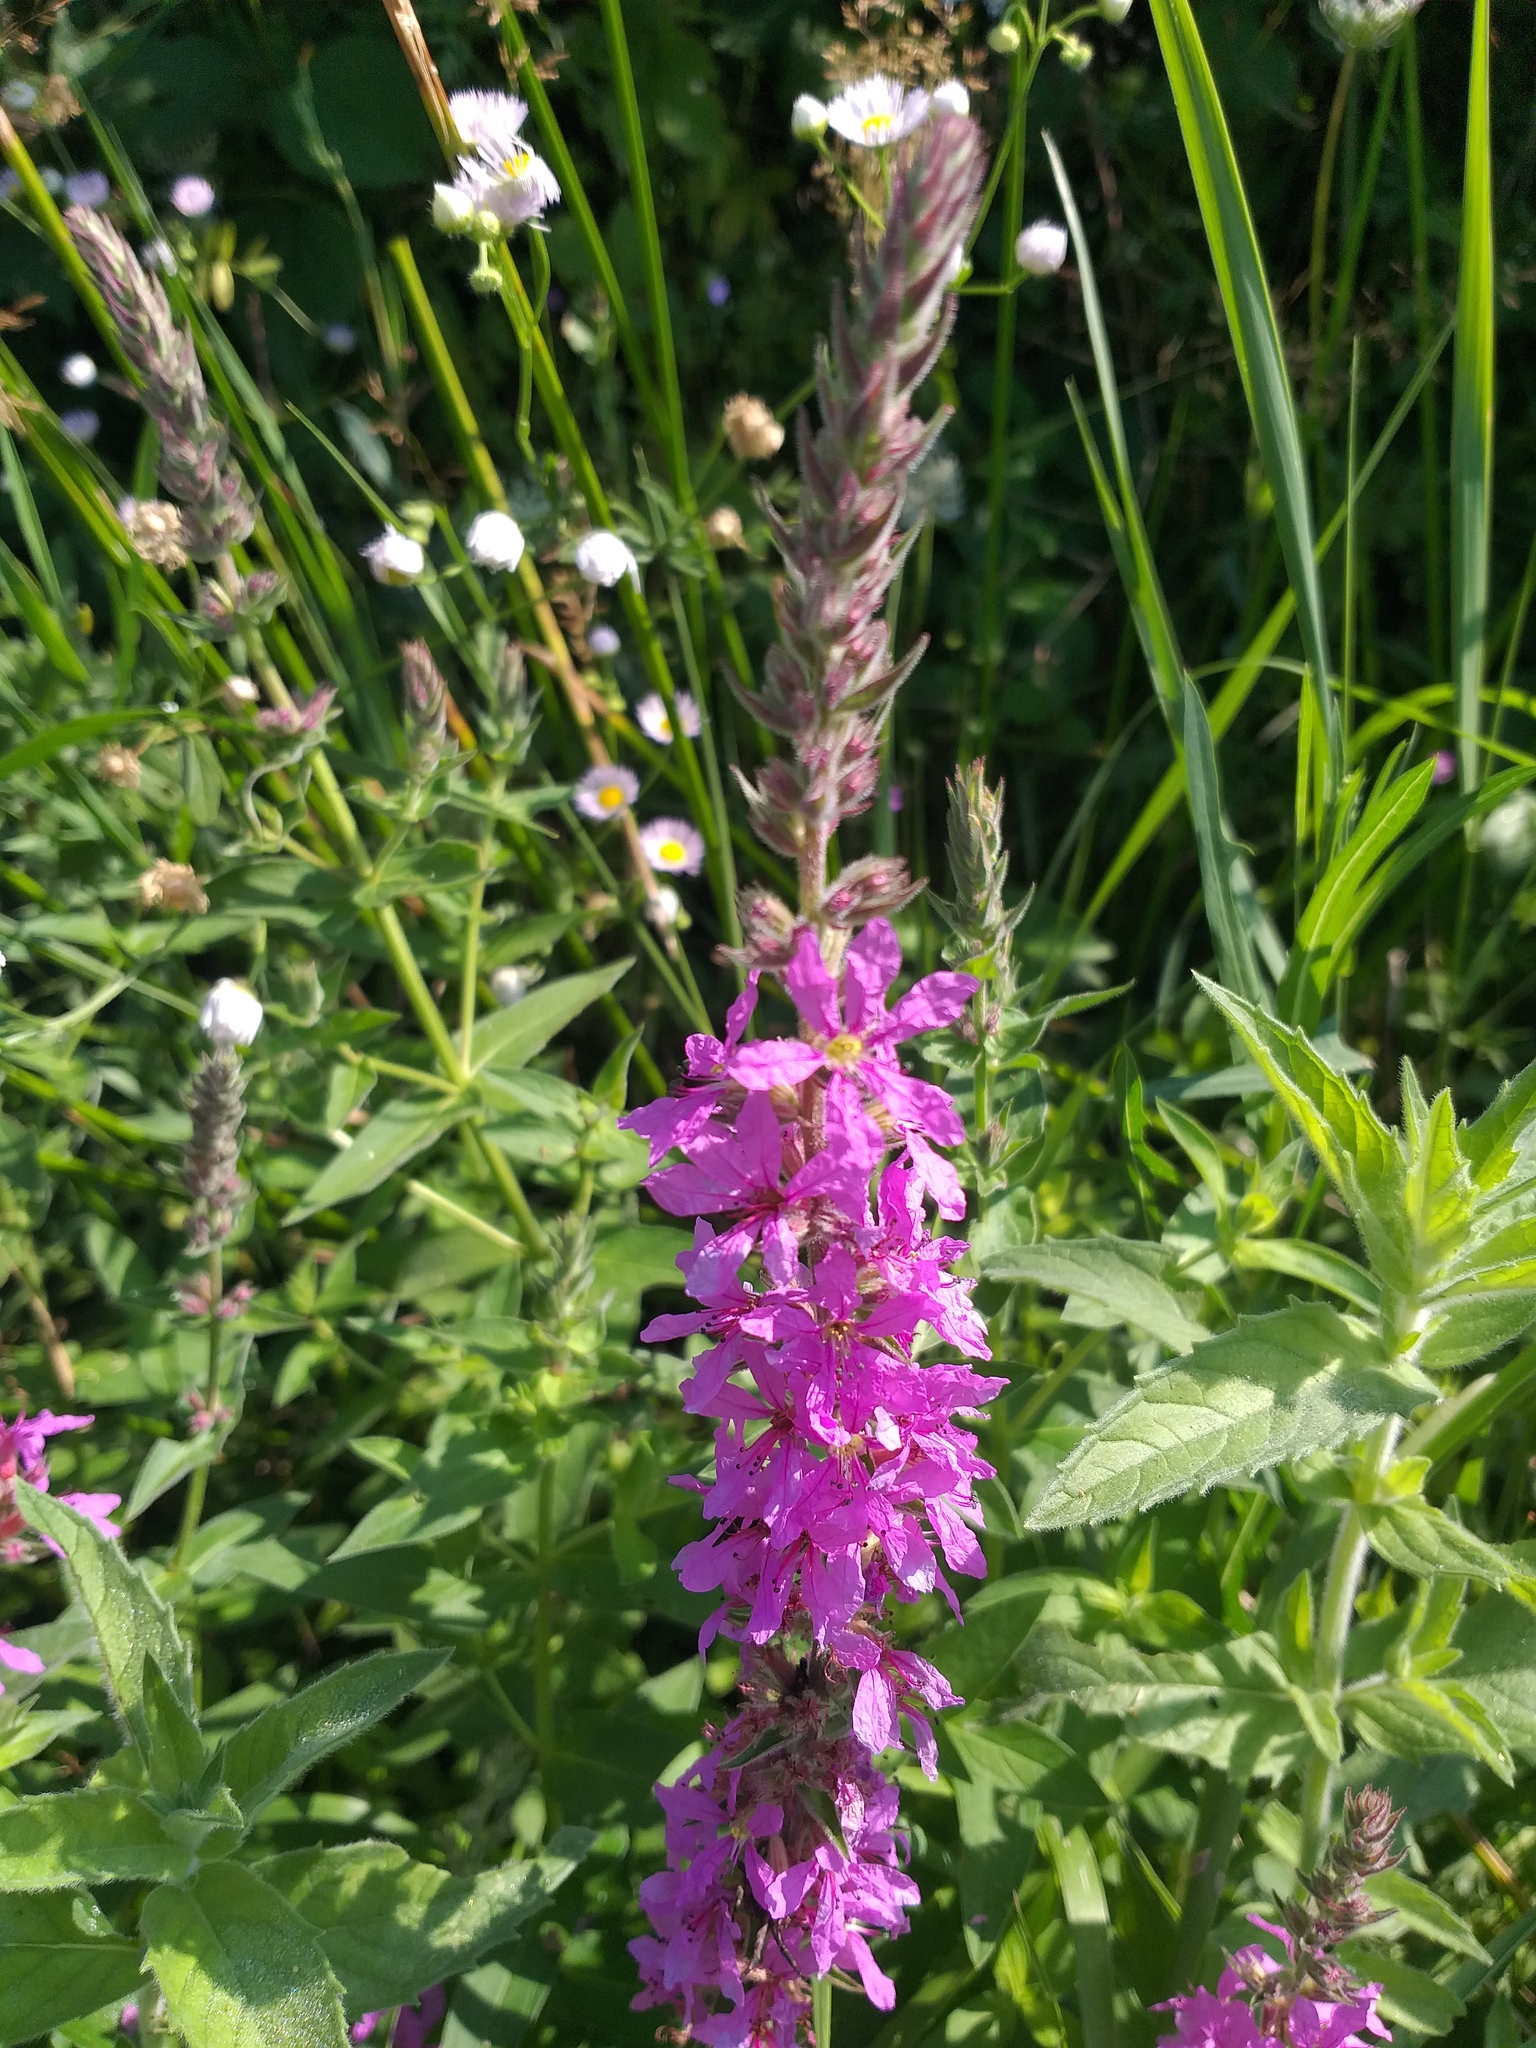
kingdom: Plantae
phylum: Tracheophyta
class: Magnoliopsida
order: Myrtales
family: Lythraceae
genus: Lythrum
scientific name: Lythrum salicaria
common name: Purple loosestrife
